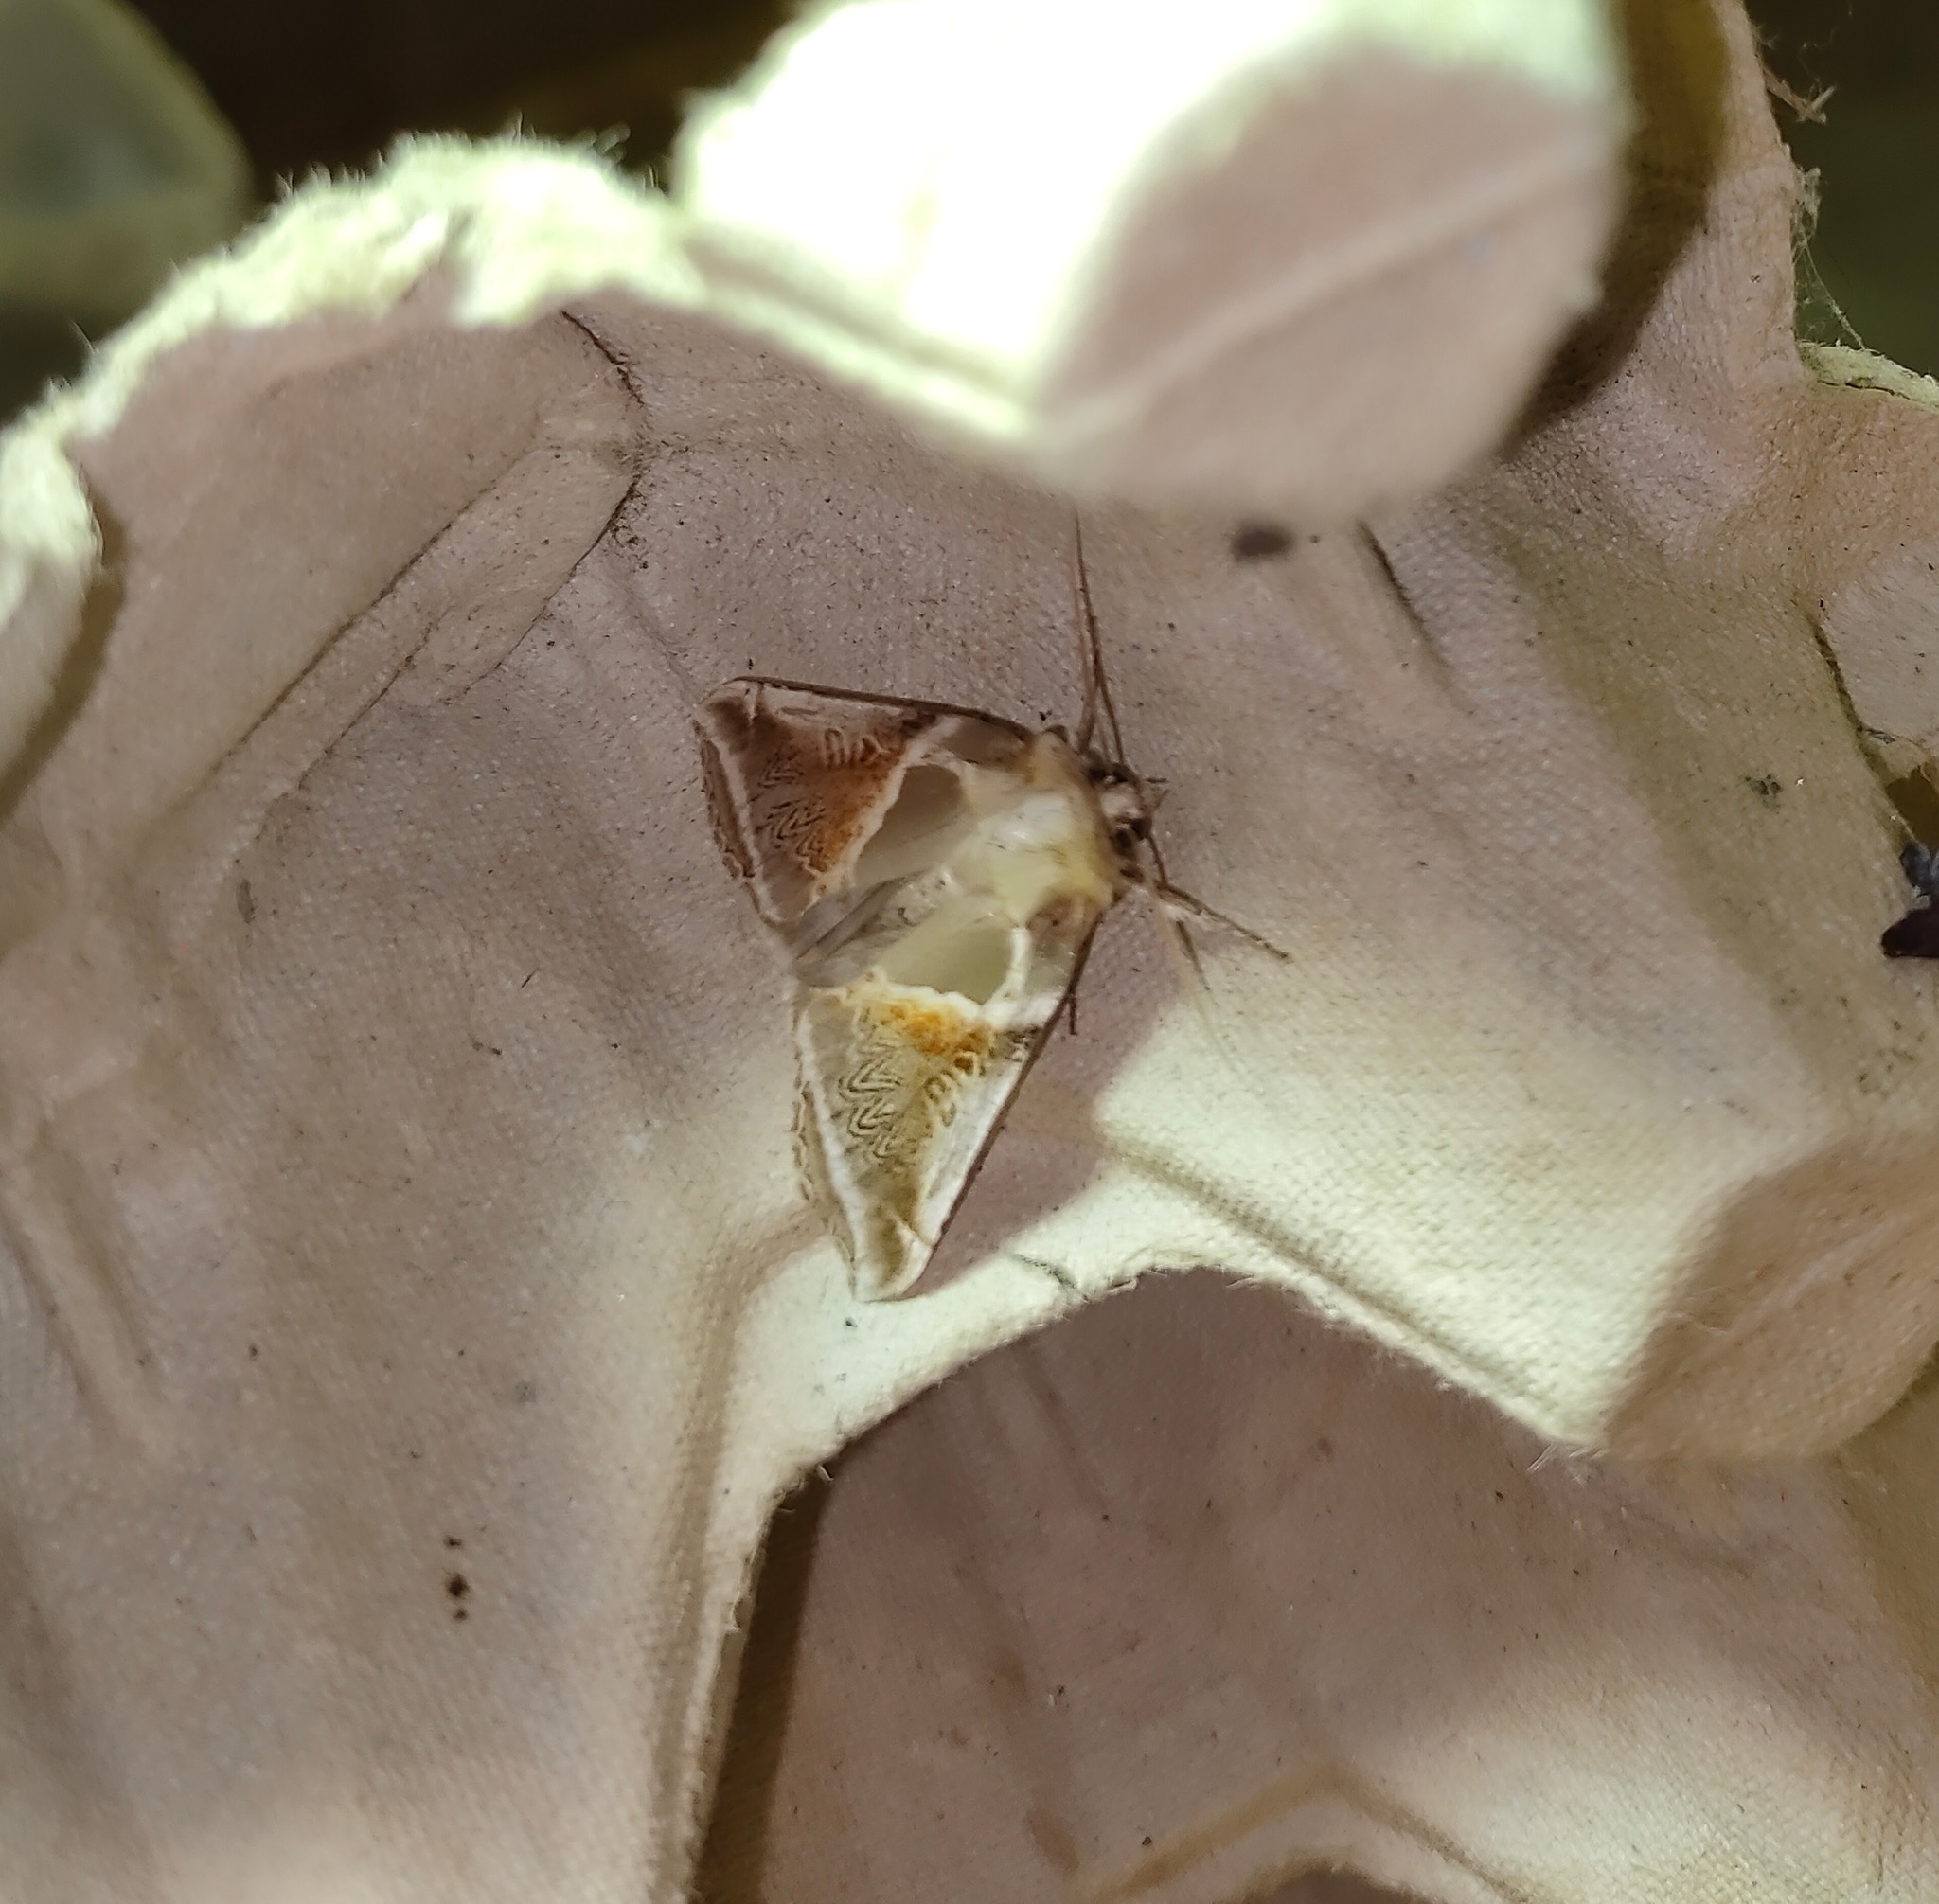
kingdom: Animalia
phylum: Arthropoda
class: Insecta
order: Lepidoptera
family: Drepanidae
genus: Habrosyne
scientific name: Habrosyne pyritoides
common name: Buff arches
